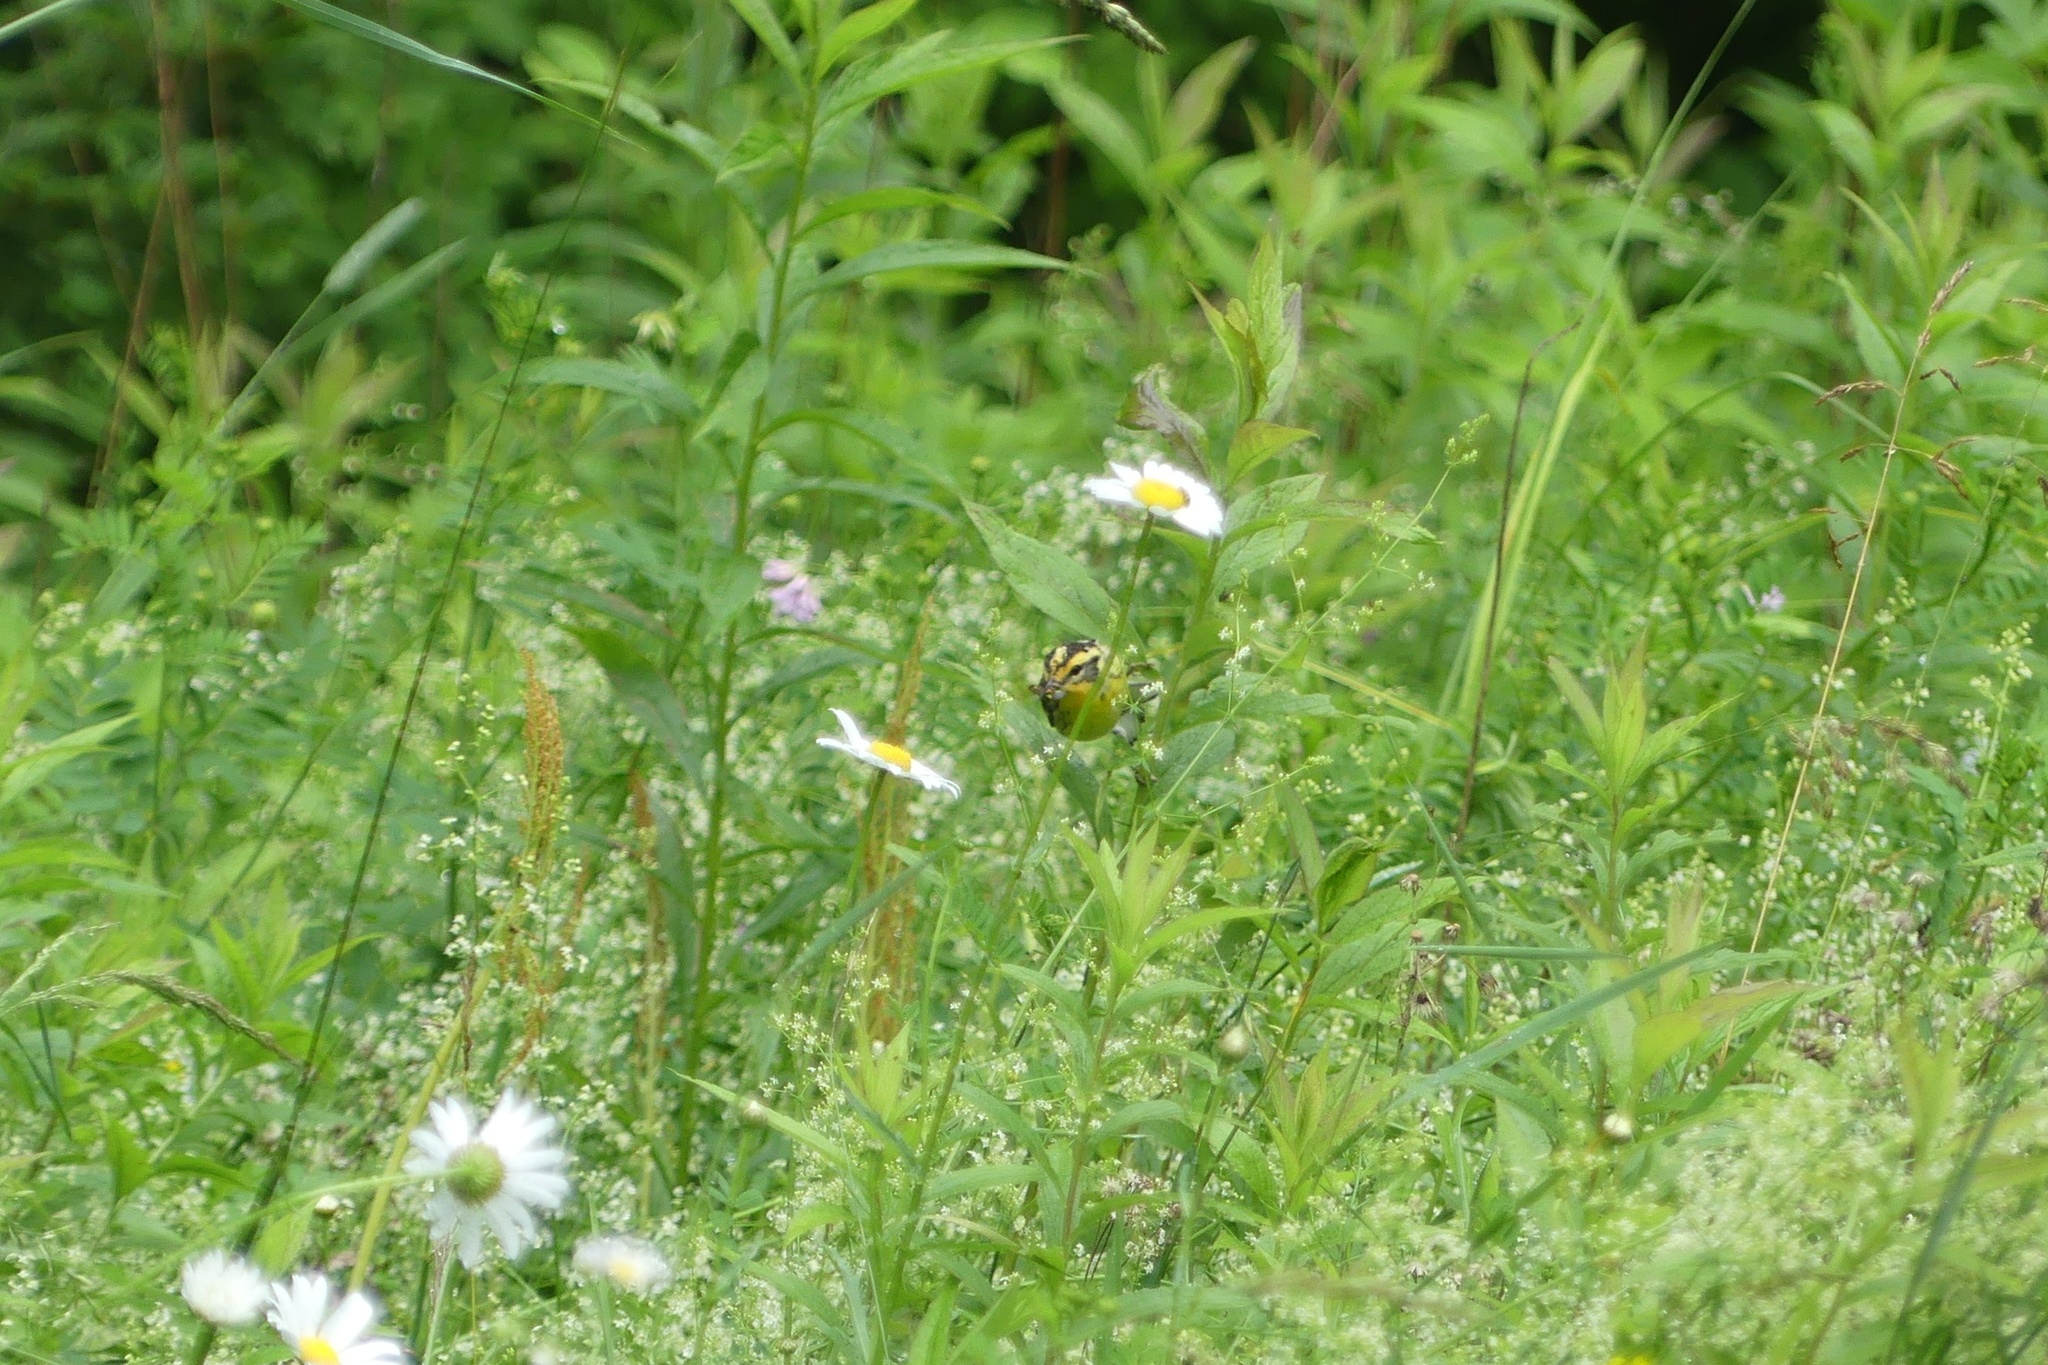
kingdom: Animalia
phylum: Chordata
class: Aves
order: Passeriformes
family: Parulidae
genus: Setophaga
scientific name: Setophaga fusca
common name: Blackburnian warbler
